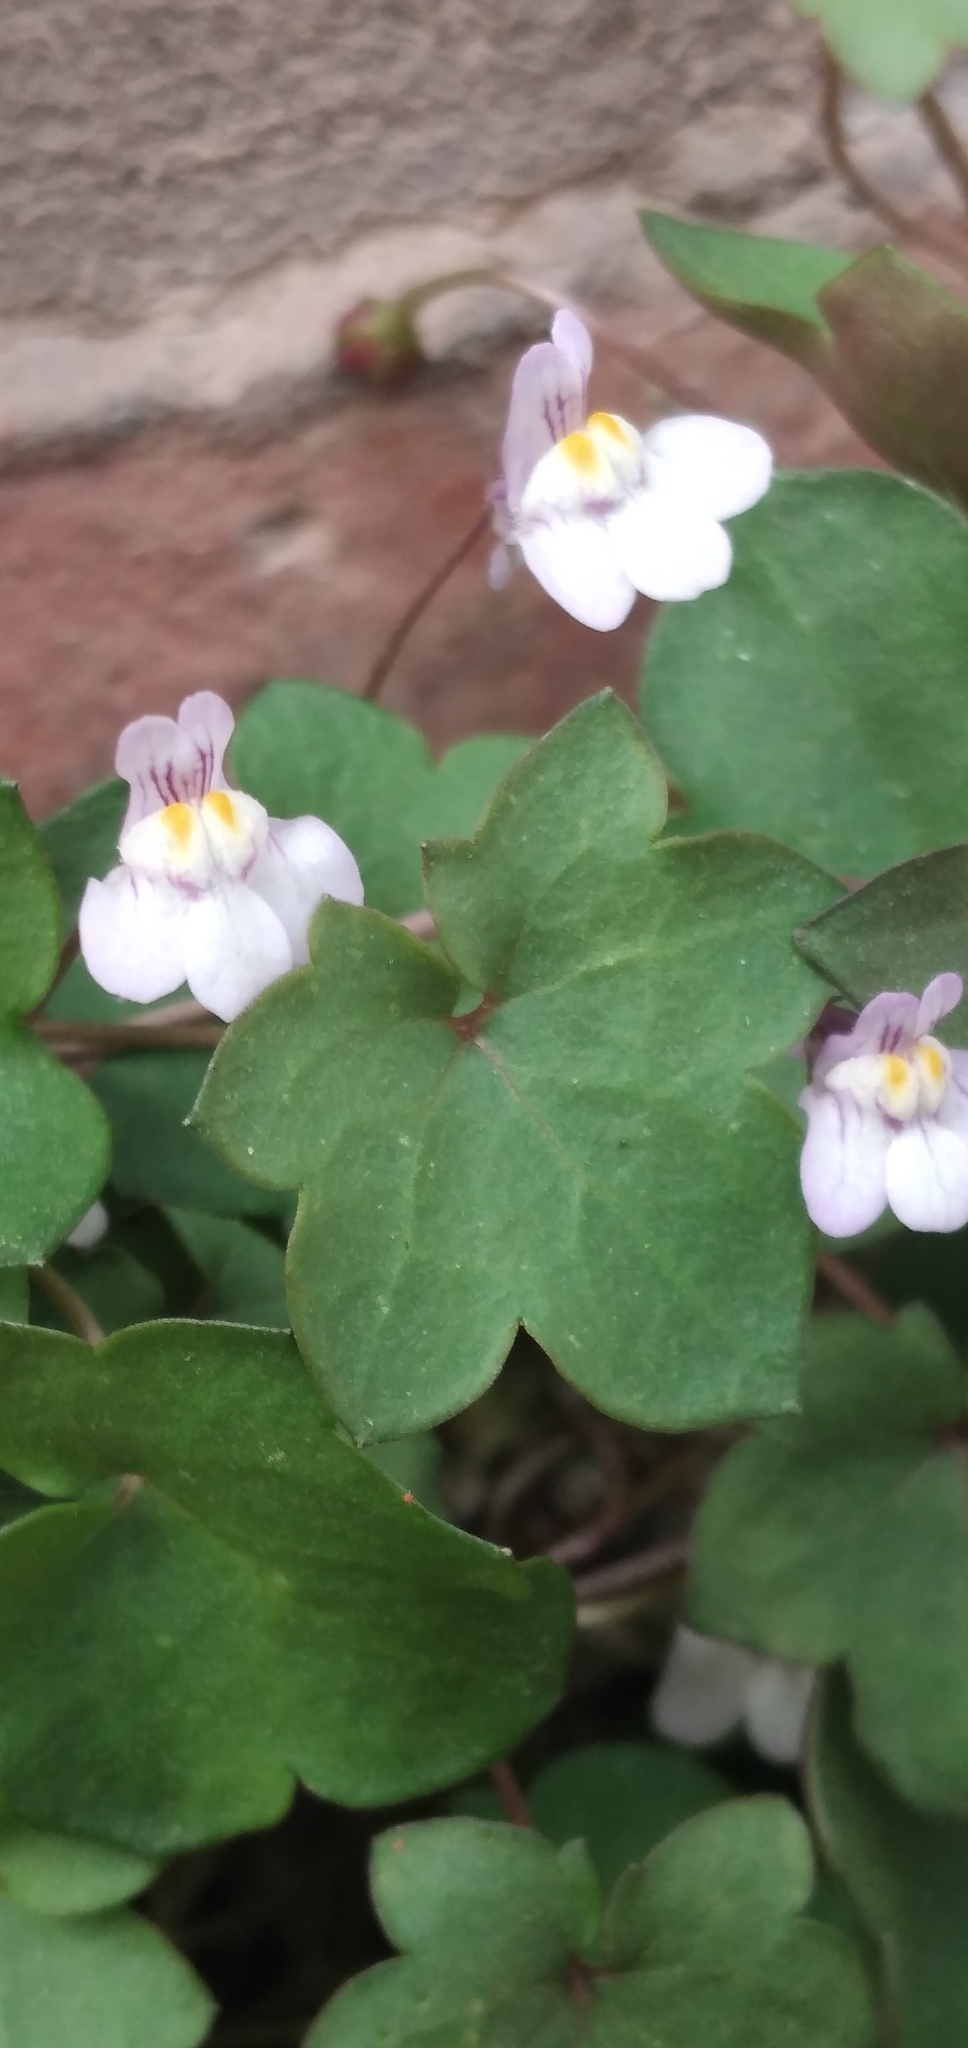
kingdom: Plantae
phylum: Tracheophyta
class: Magnoliopsida
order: Lamiales
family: Plantaginaceae
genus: Cymbalaria
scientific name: Cymbalaria muralis
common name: Ivy-leaved toadflax
